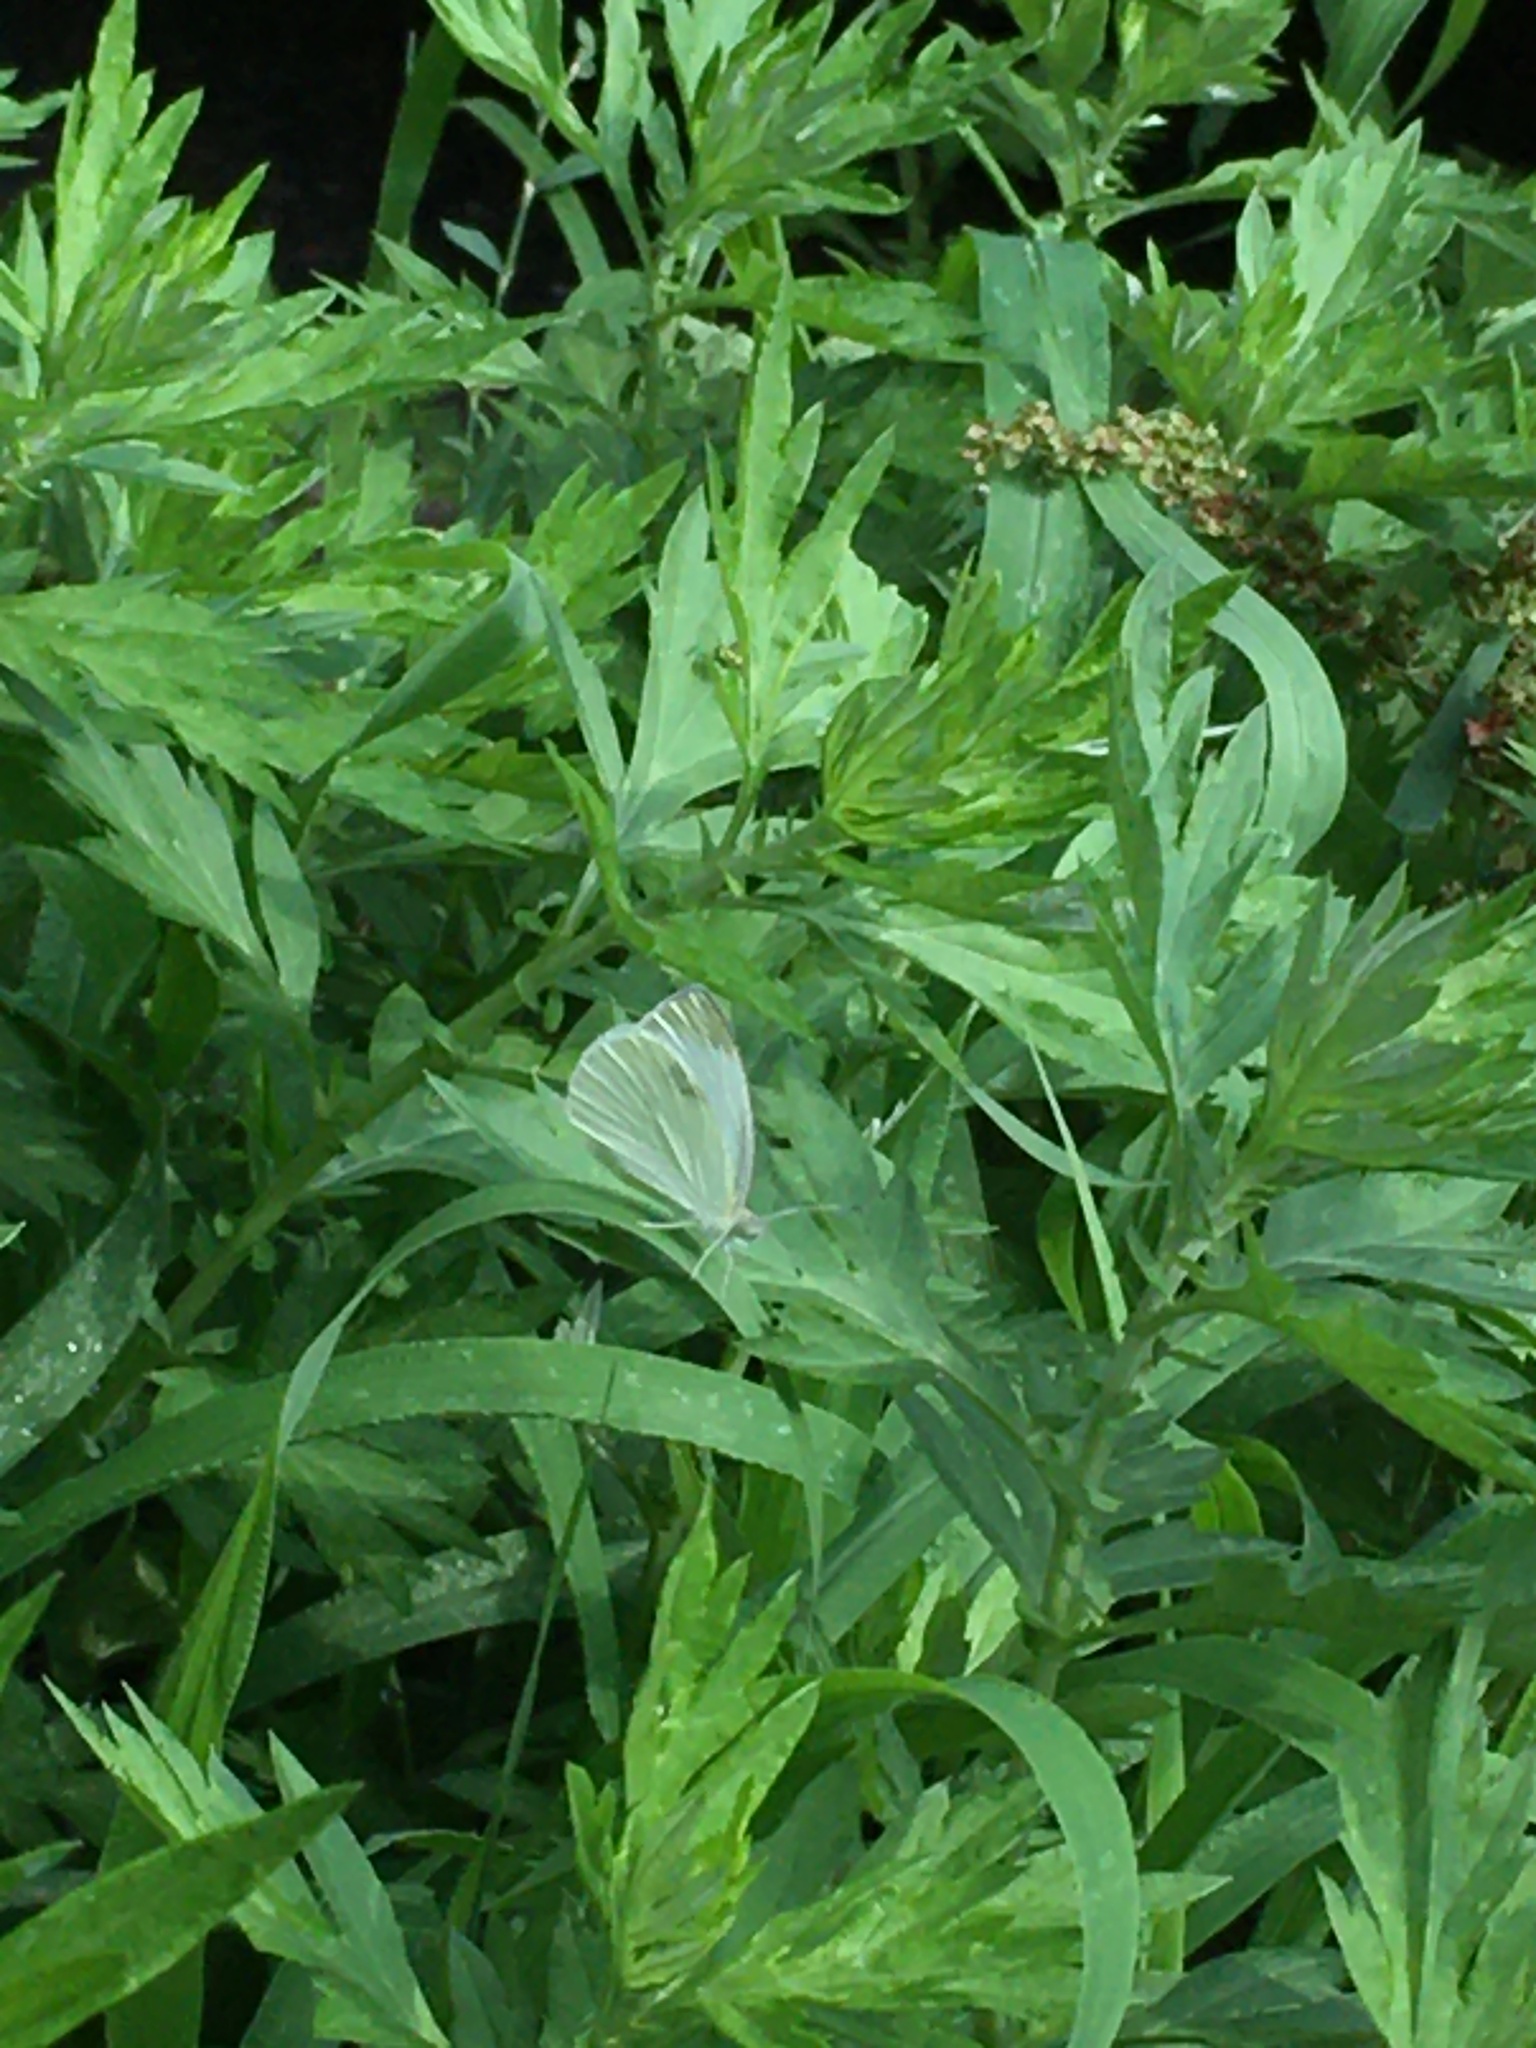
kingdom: Animalia
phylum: Arthropoda
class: Insecta
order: Lepidoptera
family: Pieridae
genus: Pieris
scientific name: Pieris rapae
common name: Small white
